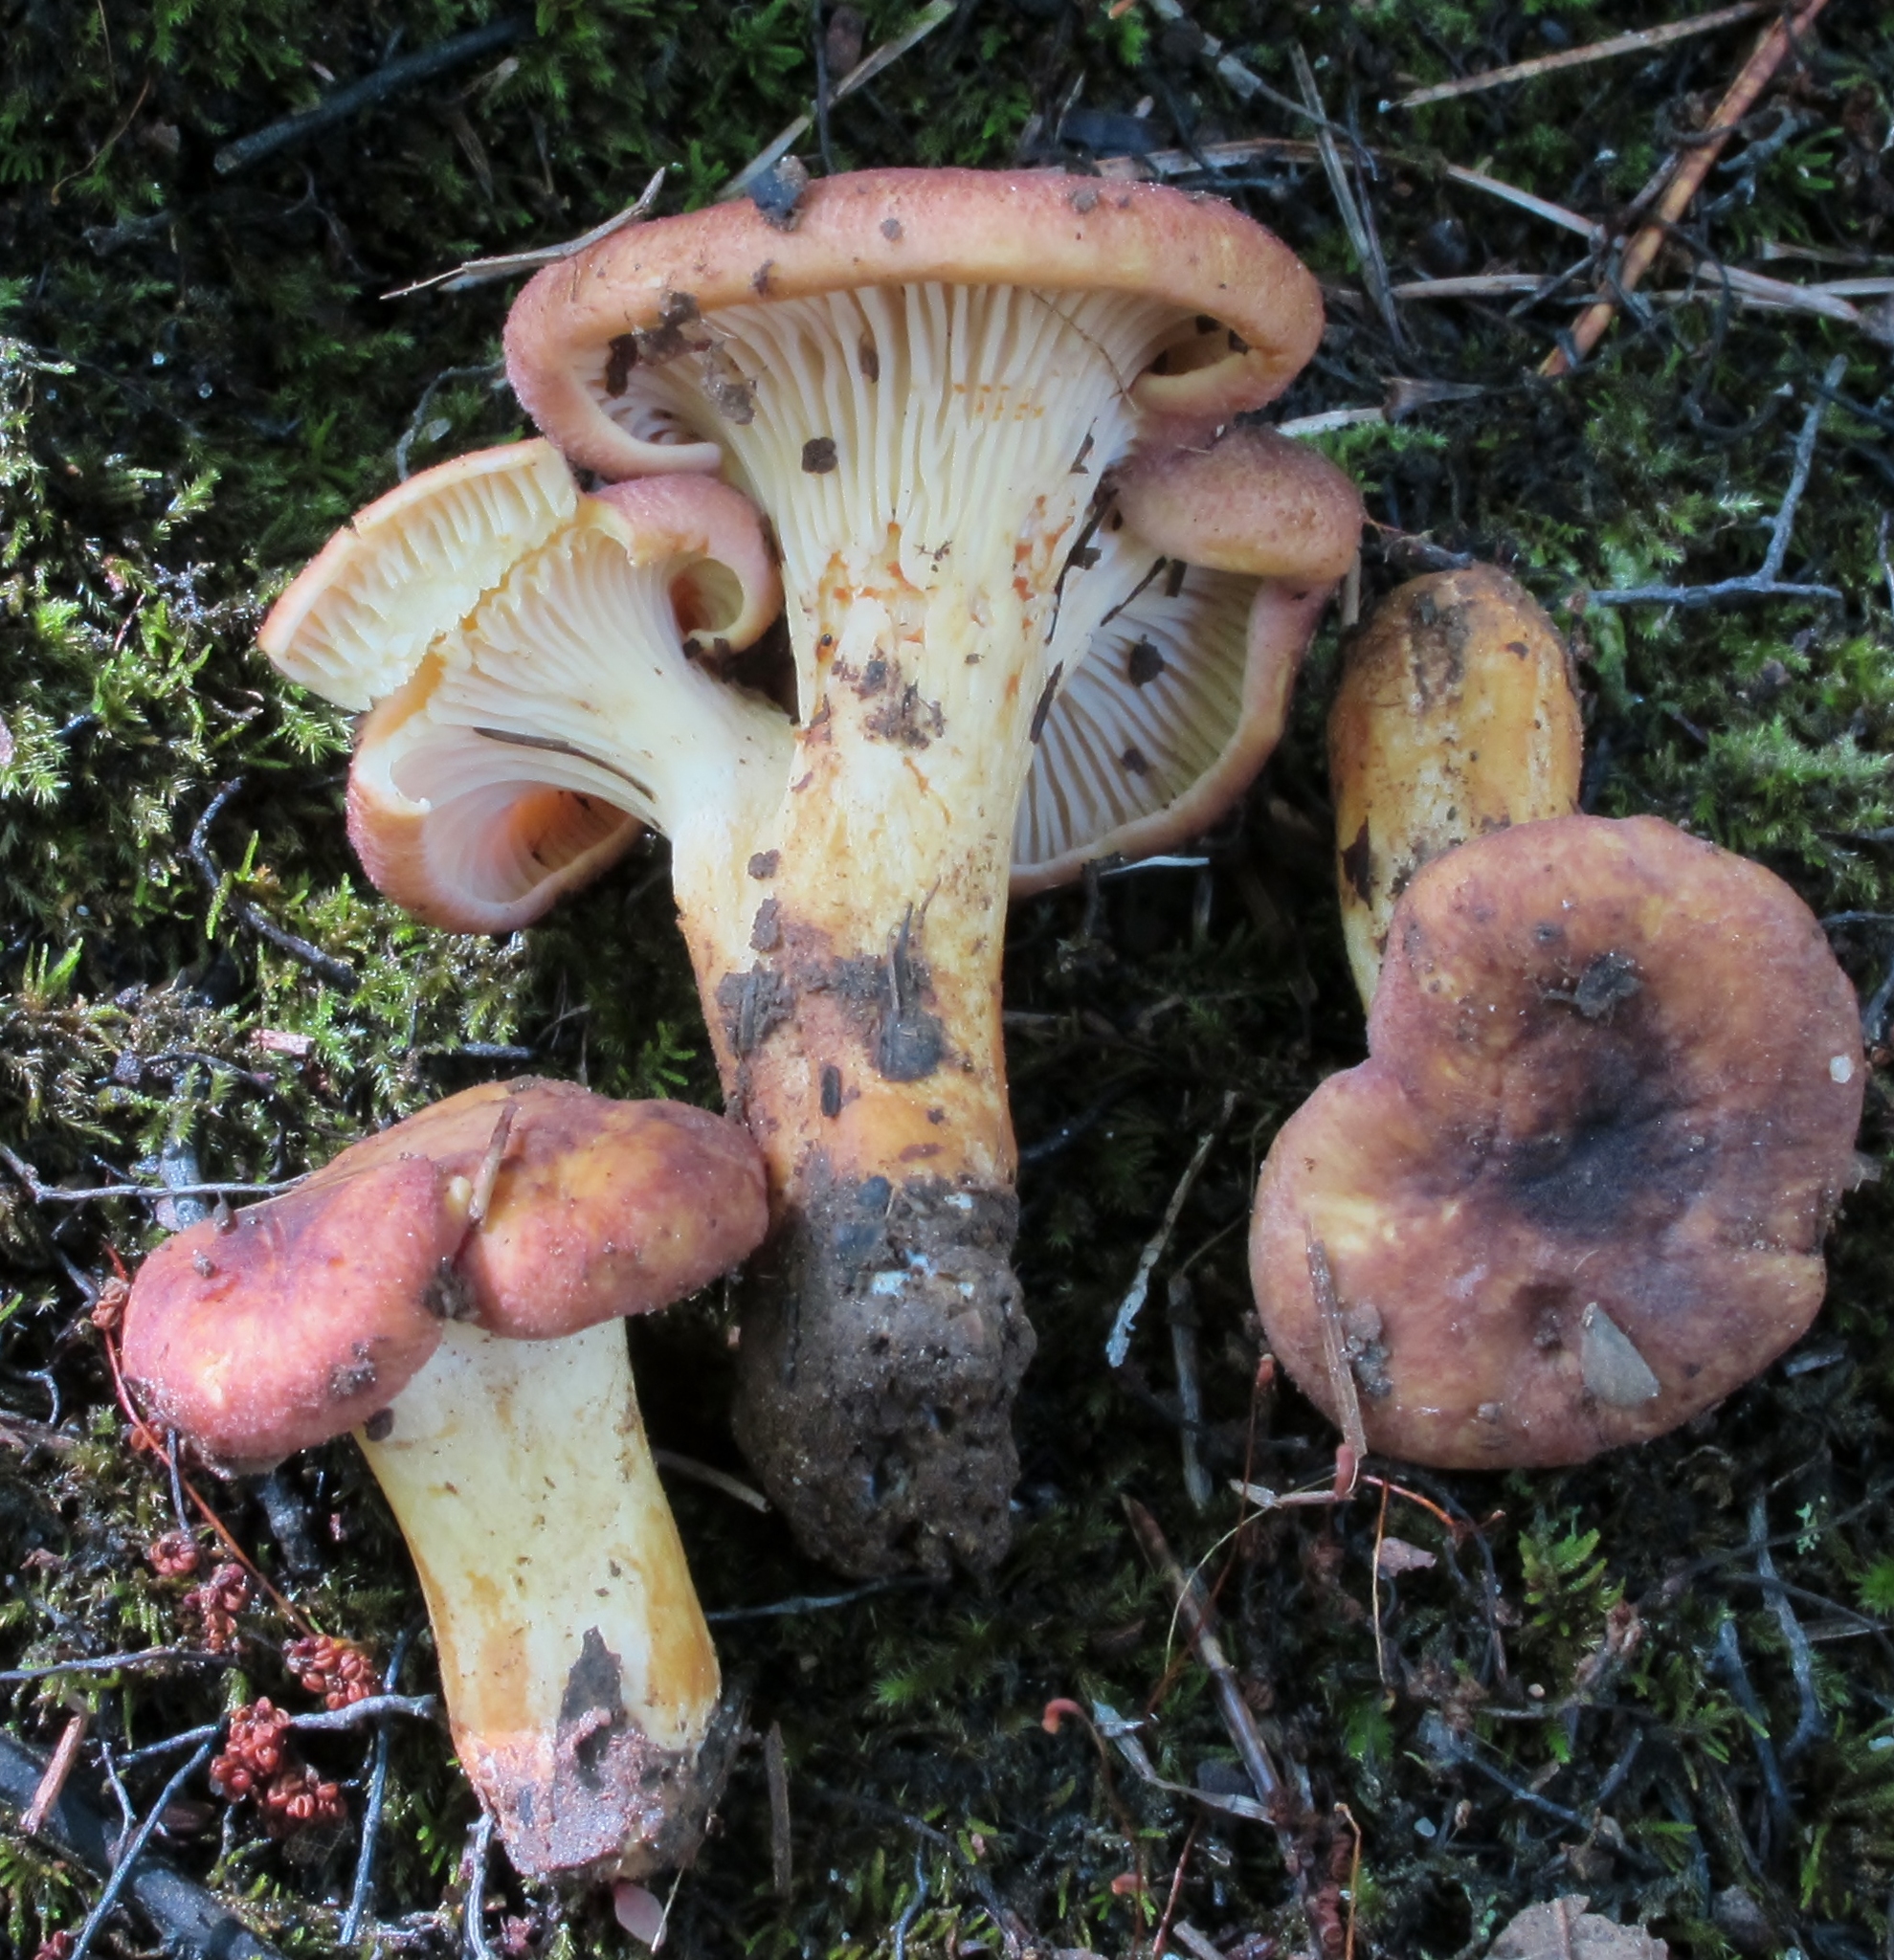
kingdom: Fungi
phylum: Basidiomycota
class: Agaricomycetes
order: Cantharellales
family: Hydnaceae
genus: Cantharellus
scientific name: Cantharellus lewisii
